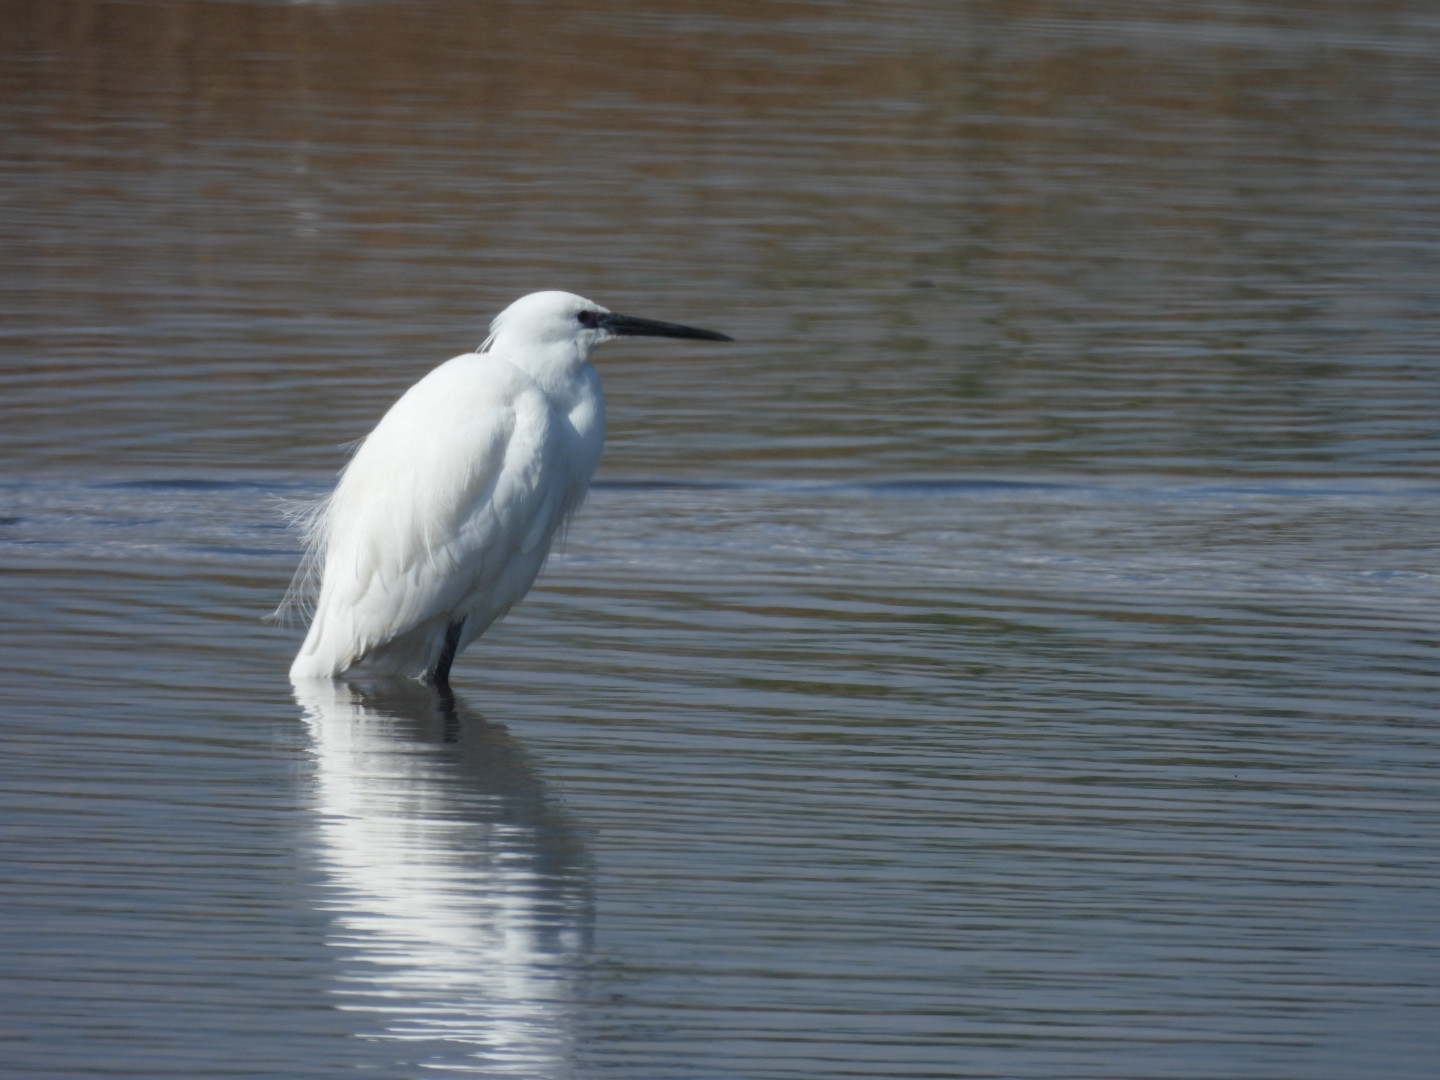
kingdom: Animalia
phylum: Chordata
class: Aves
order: Pelecaniformes
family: Ardeidae
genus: Egretta
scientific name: Egretta garzetta
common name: Little egret
